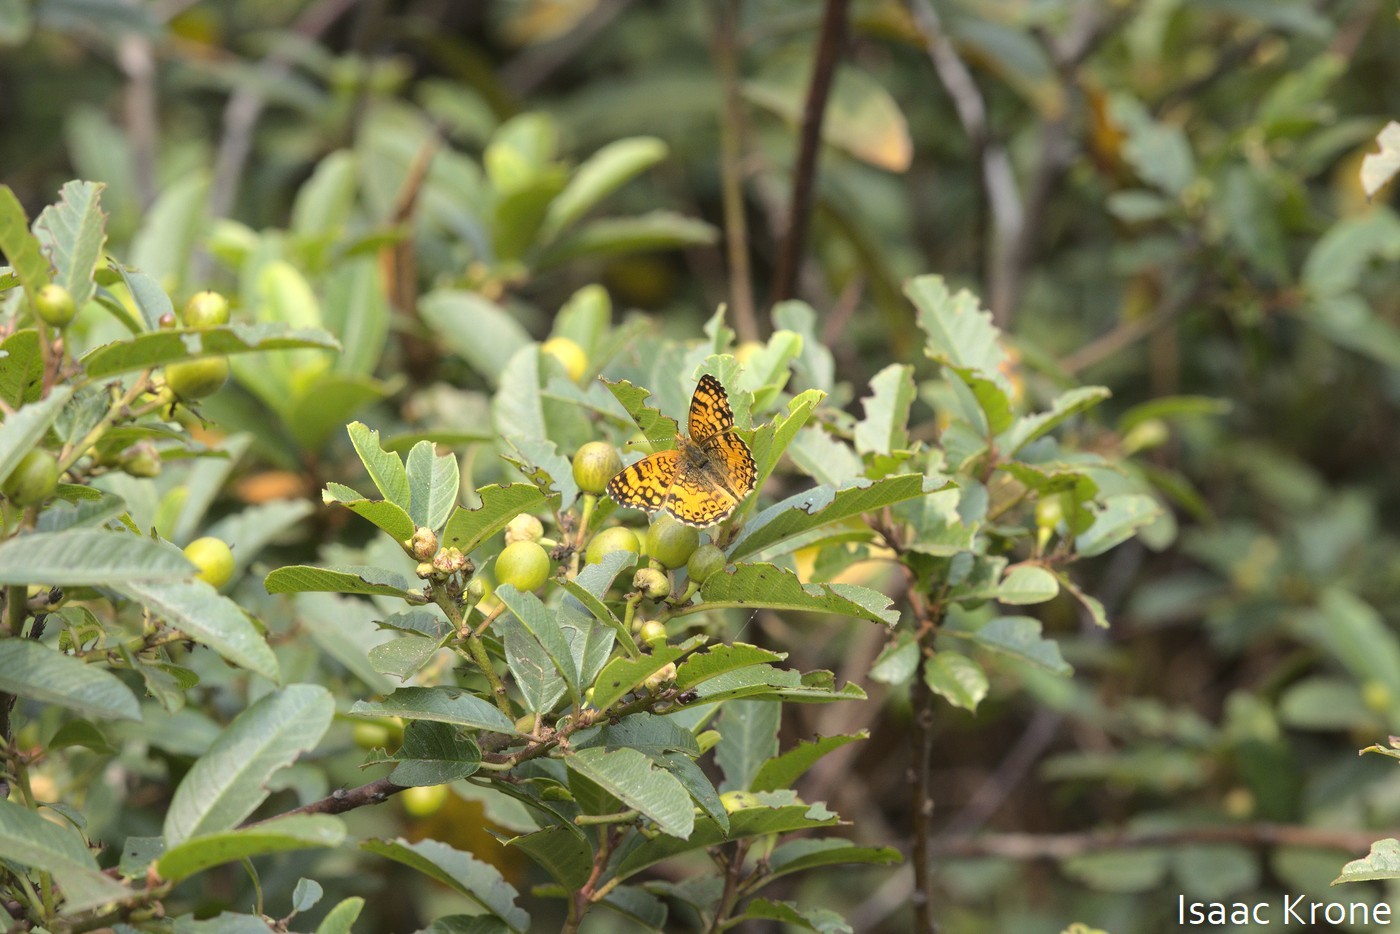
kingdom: Animalia
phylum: Arthropoda
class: Insecta
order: Lepidoptera
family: Nymphalidae
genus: Eresia
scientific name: Eresia aveyrona
